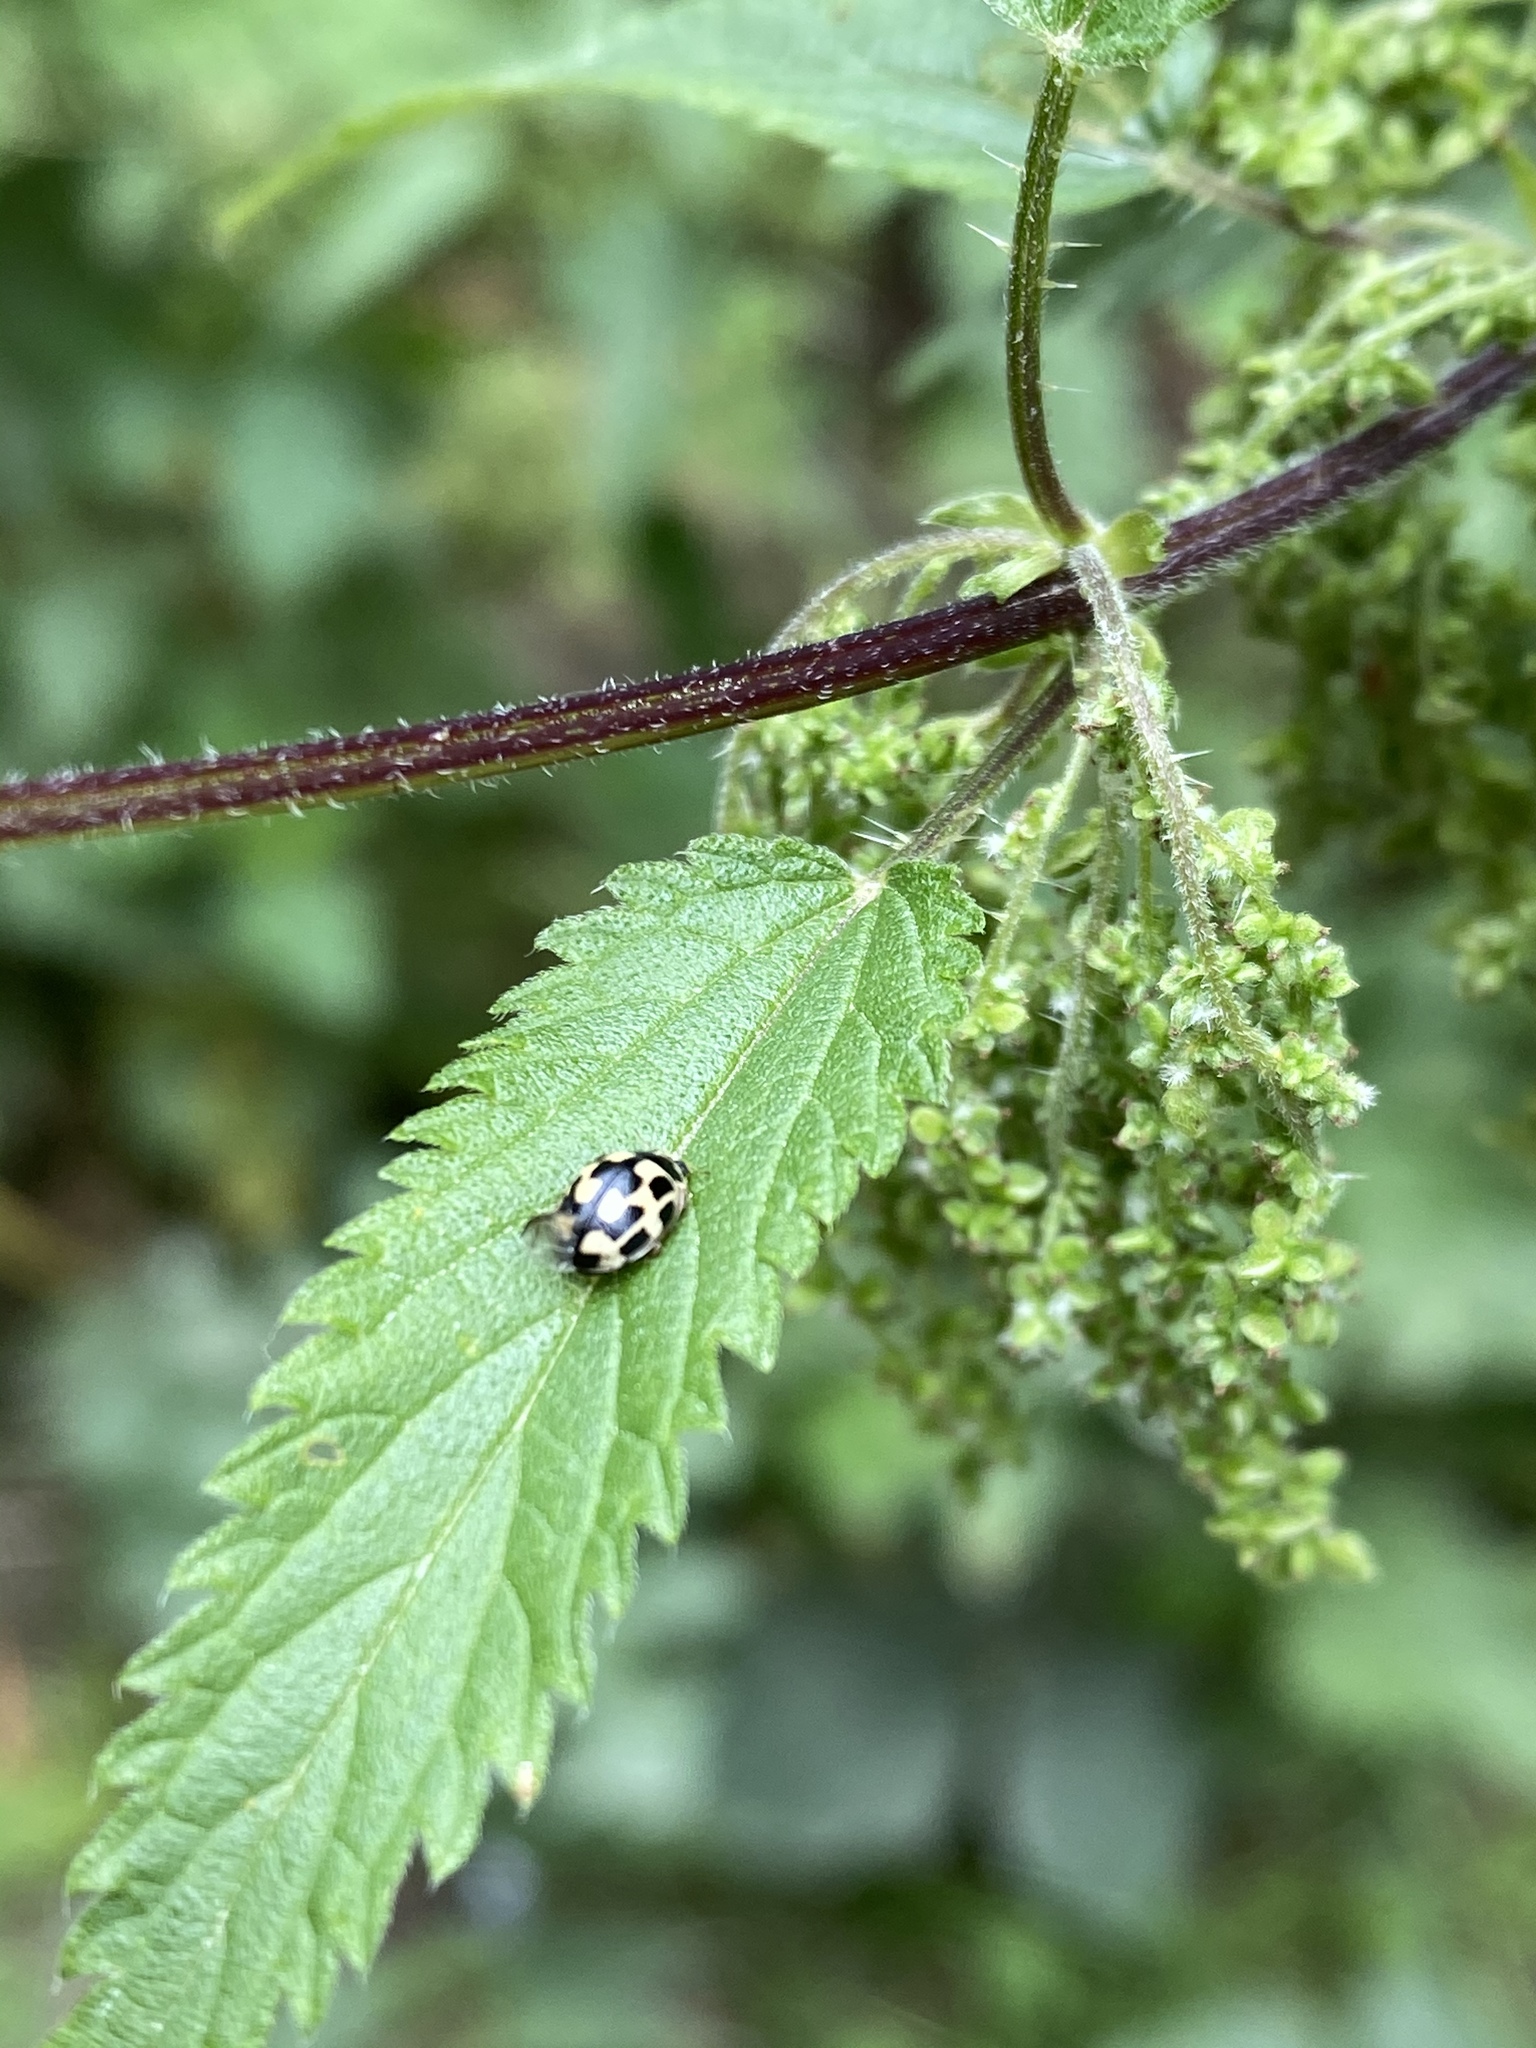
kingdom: Animalia
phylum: Arthropoda
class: Insecta
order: Coleoptera
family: Coccinellidae
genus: Propylaea
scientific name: Propylaea quatuordecimpunctata
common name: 14-spotted ladybird beetle
